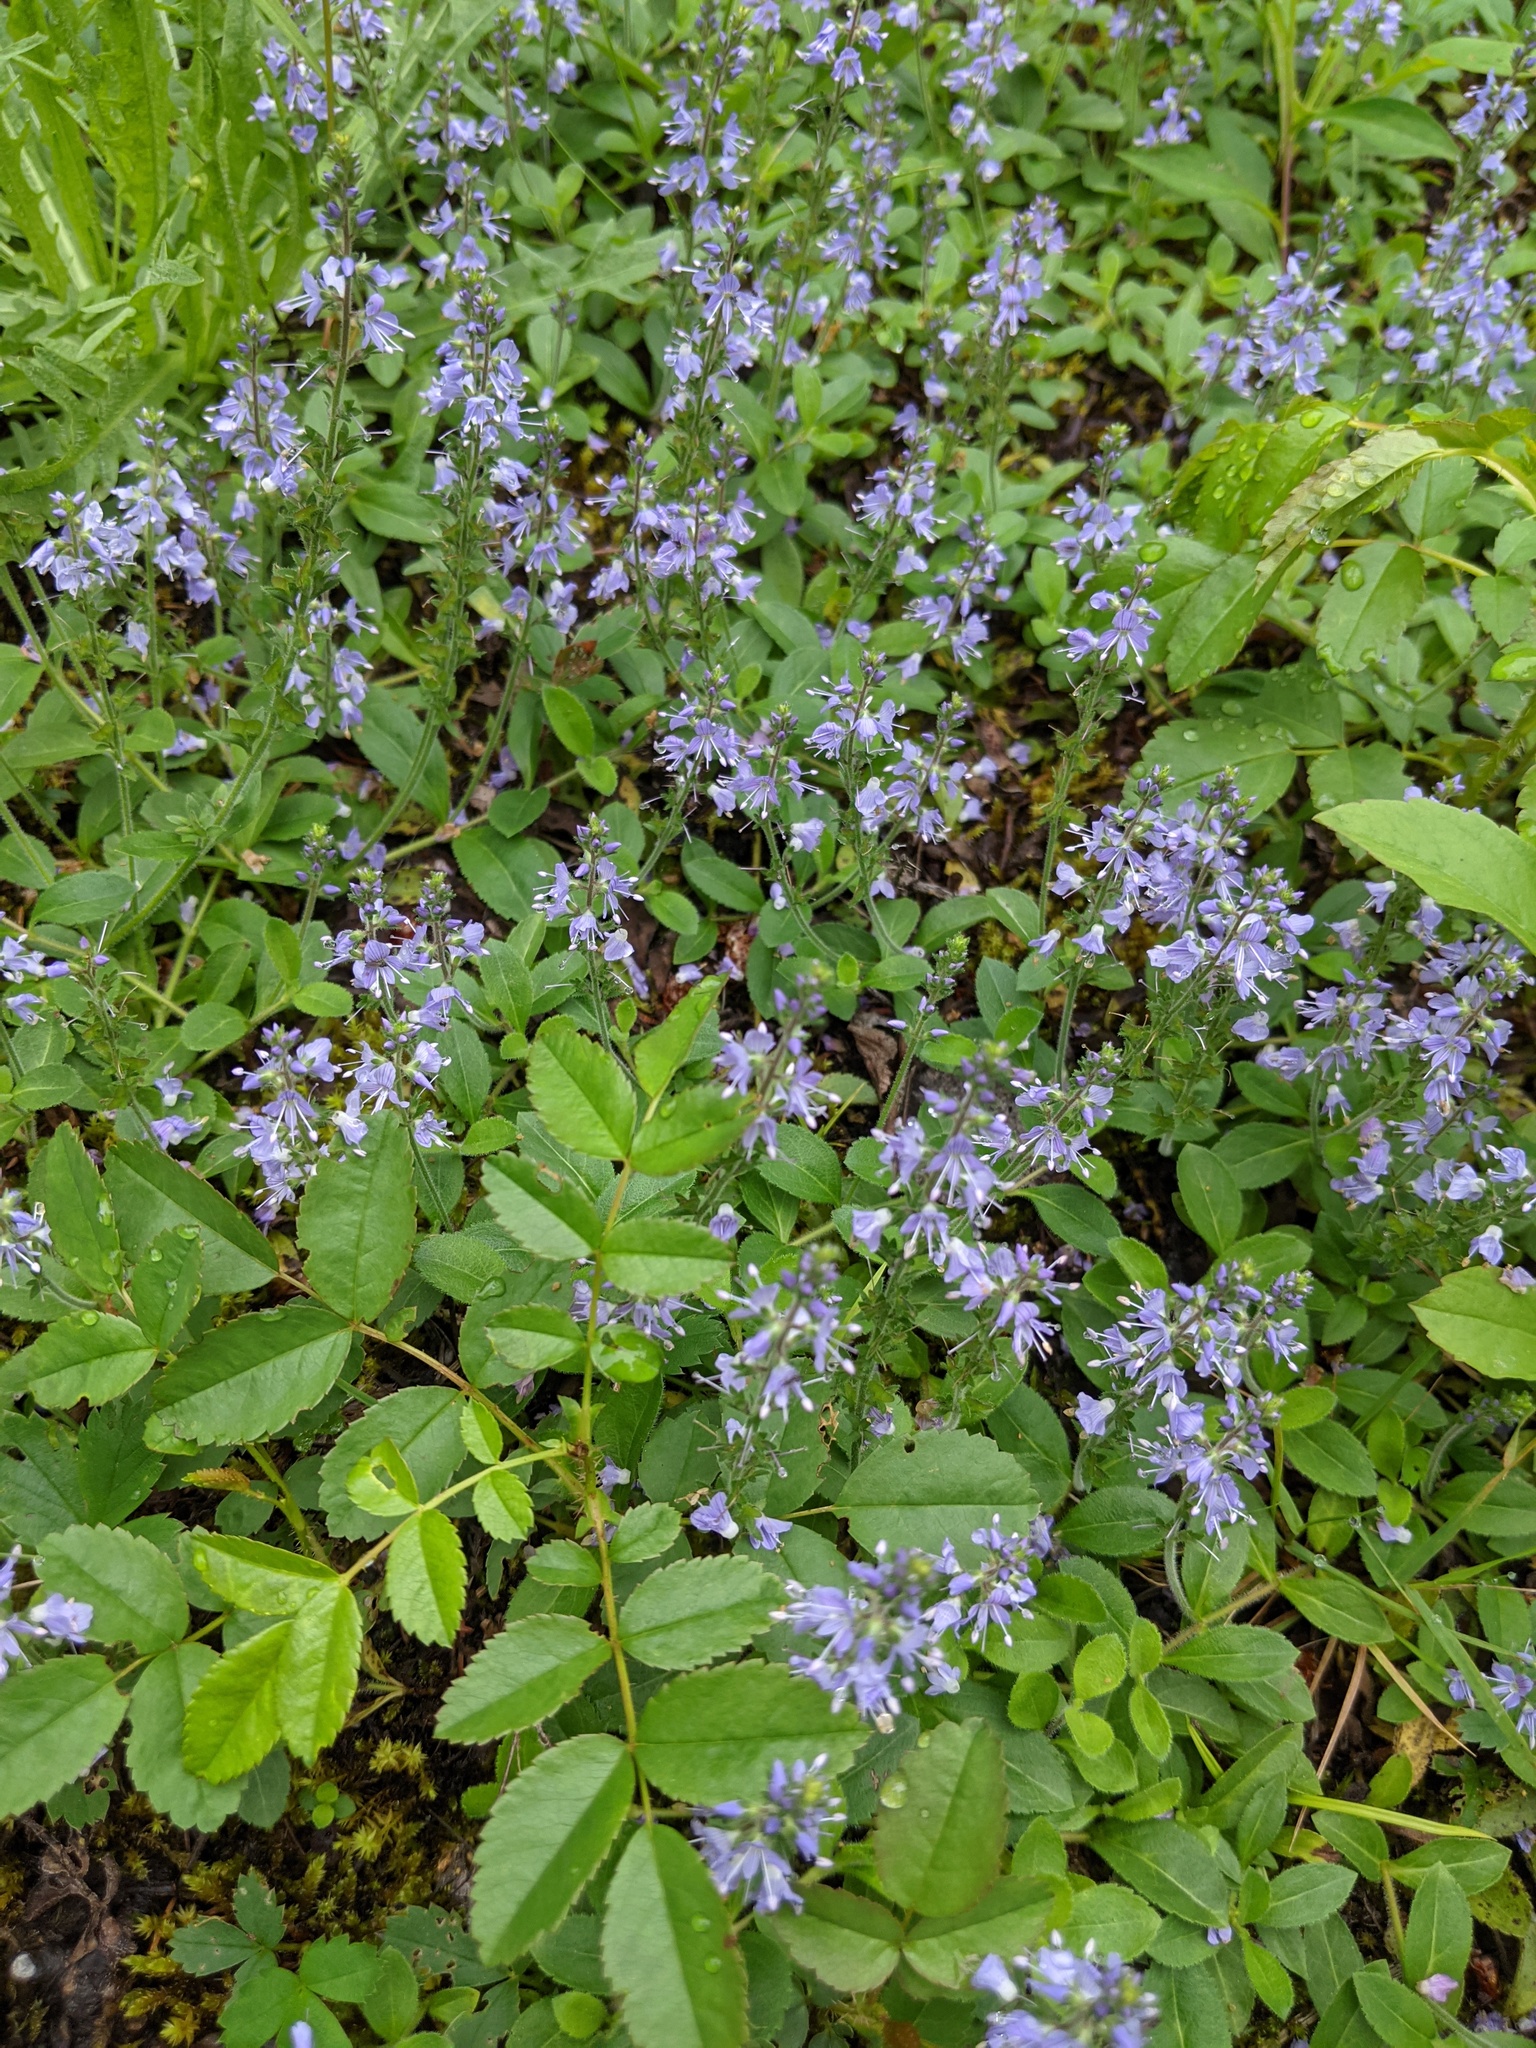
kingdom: Plantae
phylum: Tracheophyta
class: Magnoliopsida
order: Lamiales
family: Plantaginaceae
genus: Veronica
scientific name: Veronica officinalis
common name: Common speedwell
